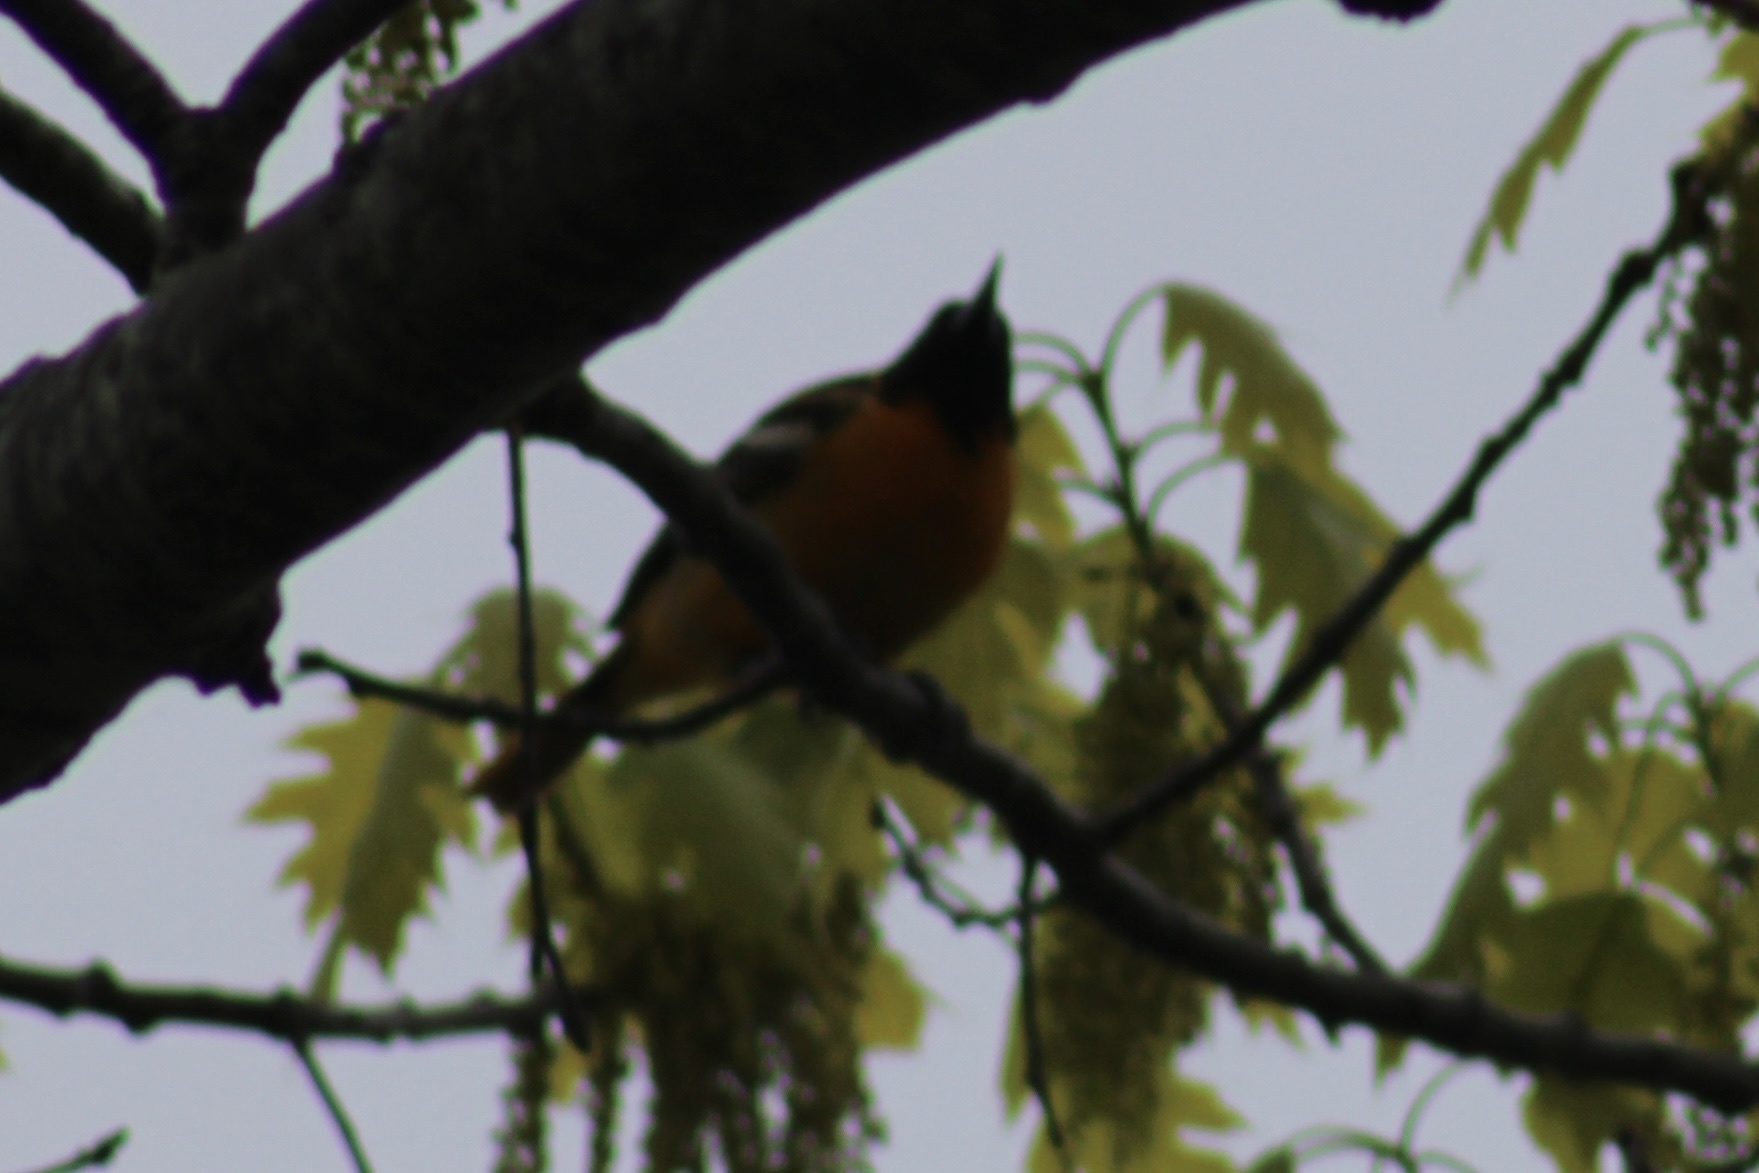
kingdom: Animalia
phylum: Chordata
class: Aves
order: Passeriformes
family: Icteridae
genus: Icterus
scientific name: Icterus galbula
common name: Baltimore oriole
